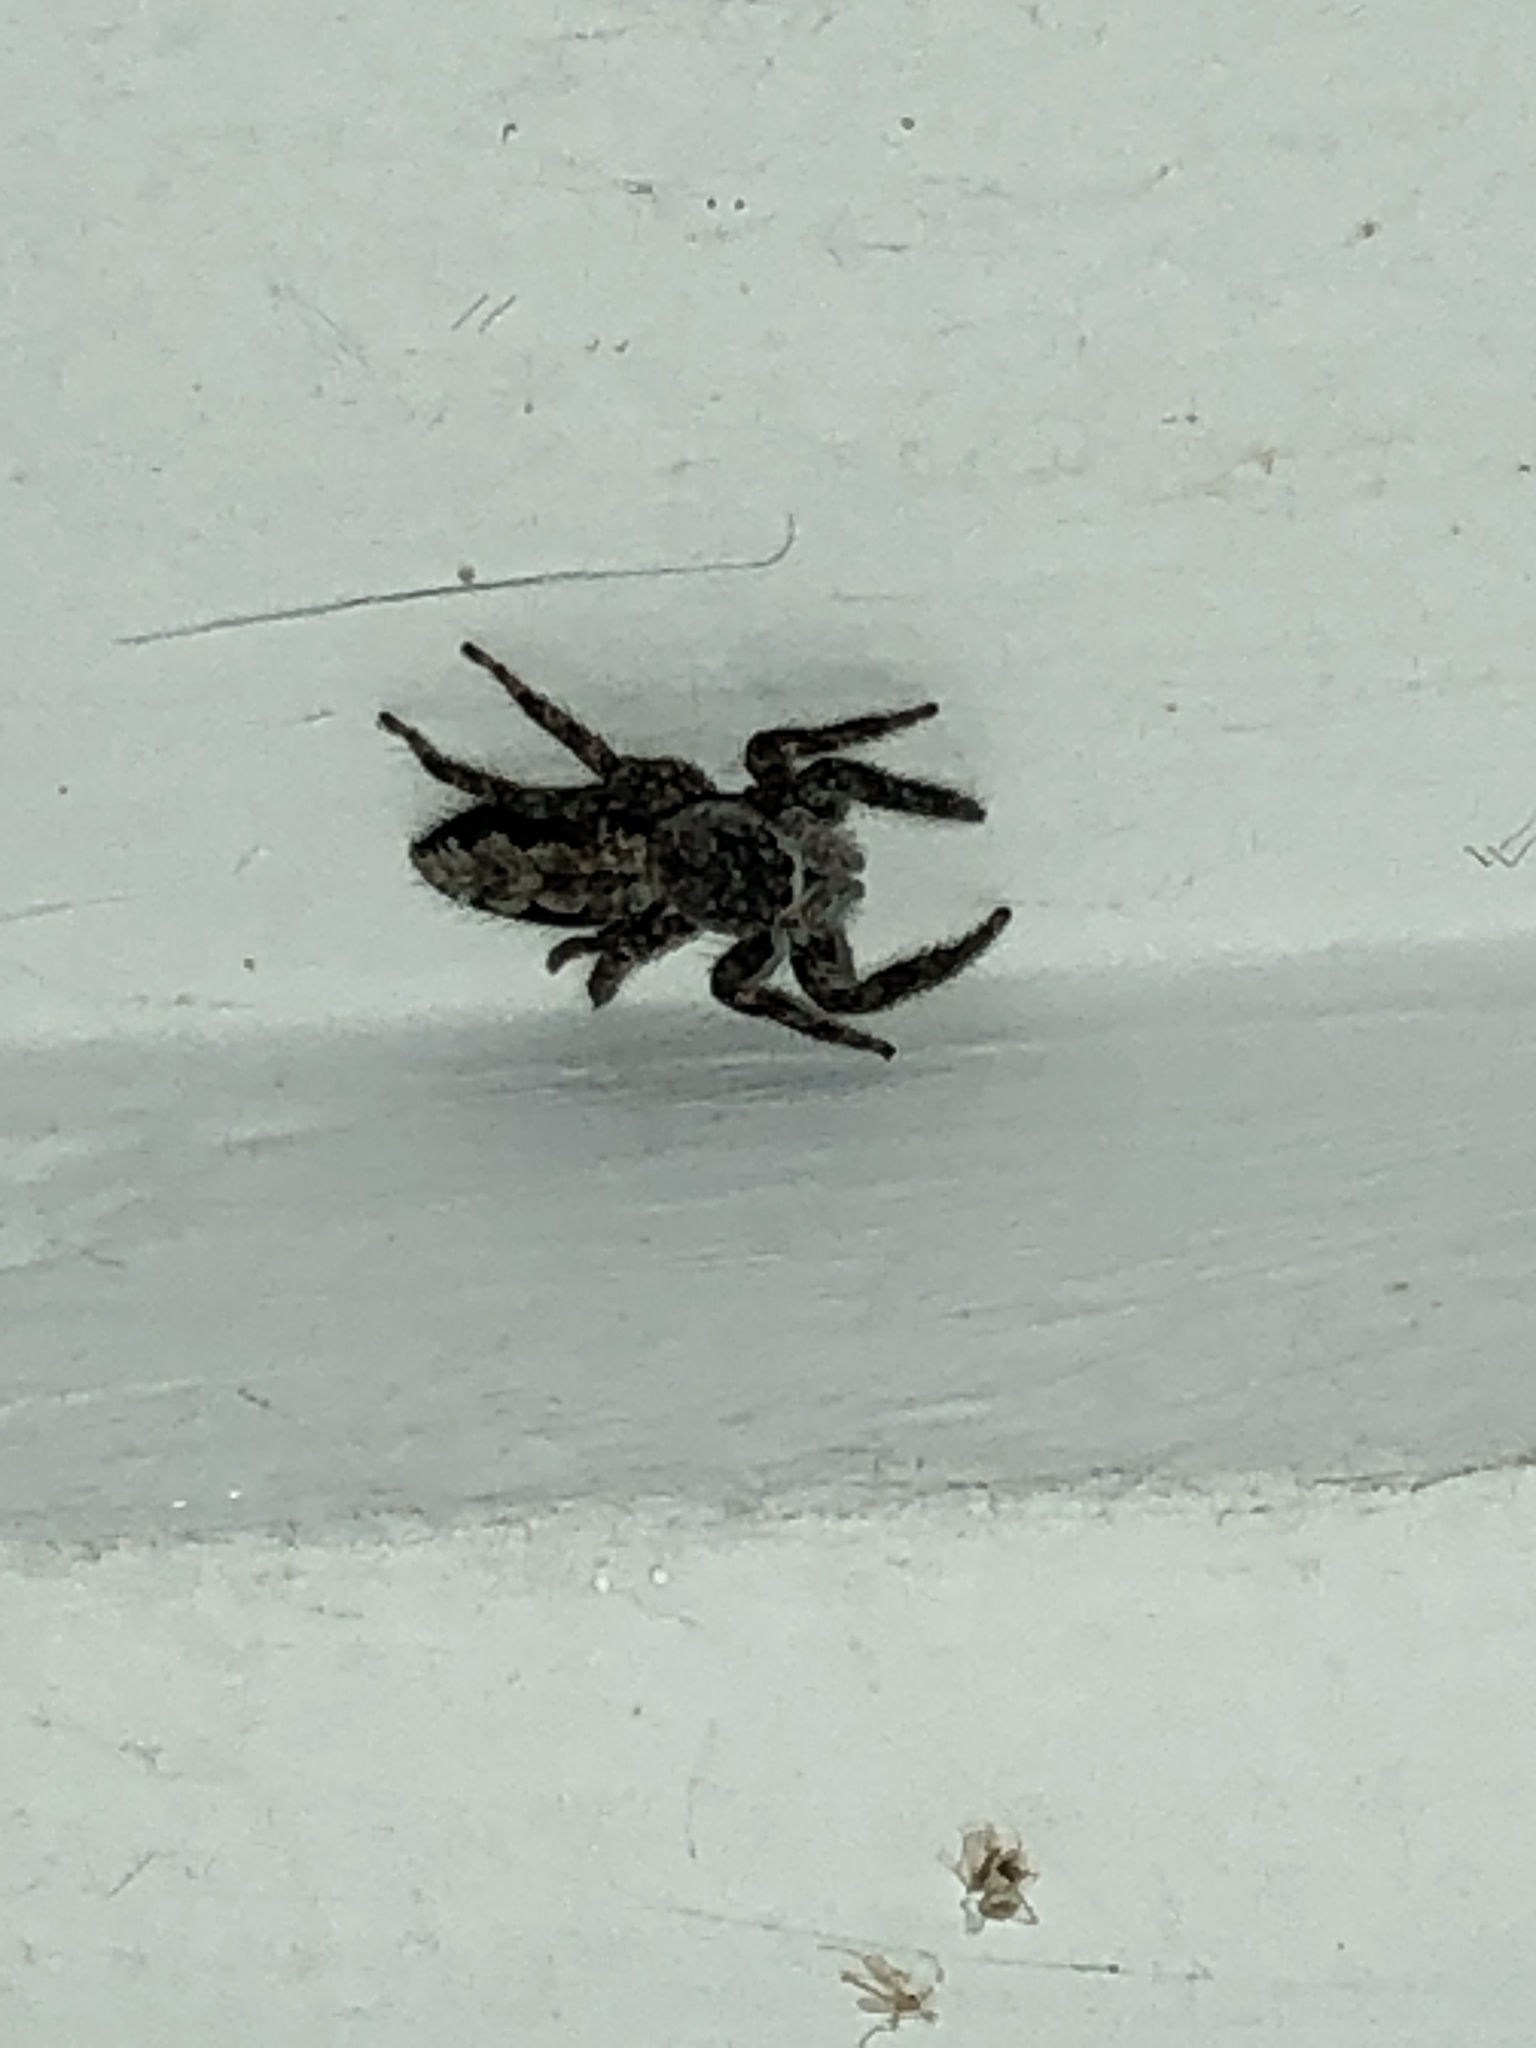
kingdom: Animalia
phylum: Arthropoda
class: Arachnida
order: Araneae
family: Salticidae
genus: Platycryptus
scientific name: Platycryptus undatus
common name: Tan jumping spider
